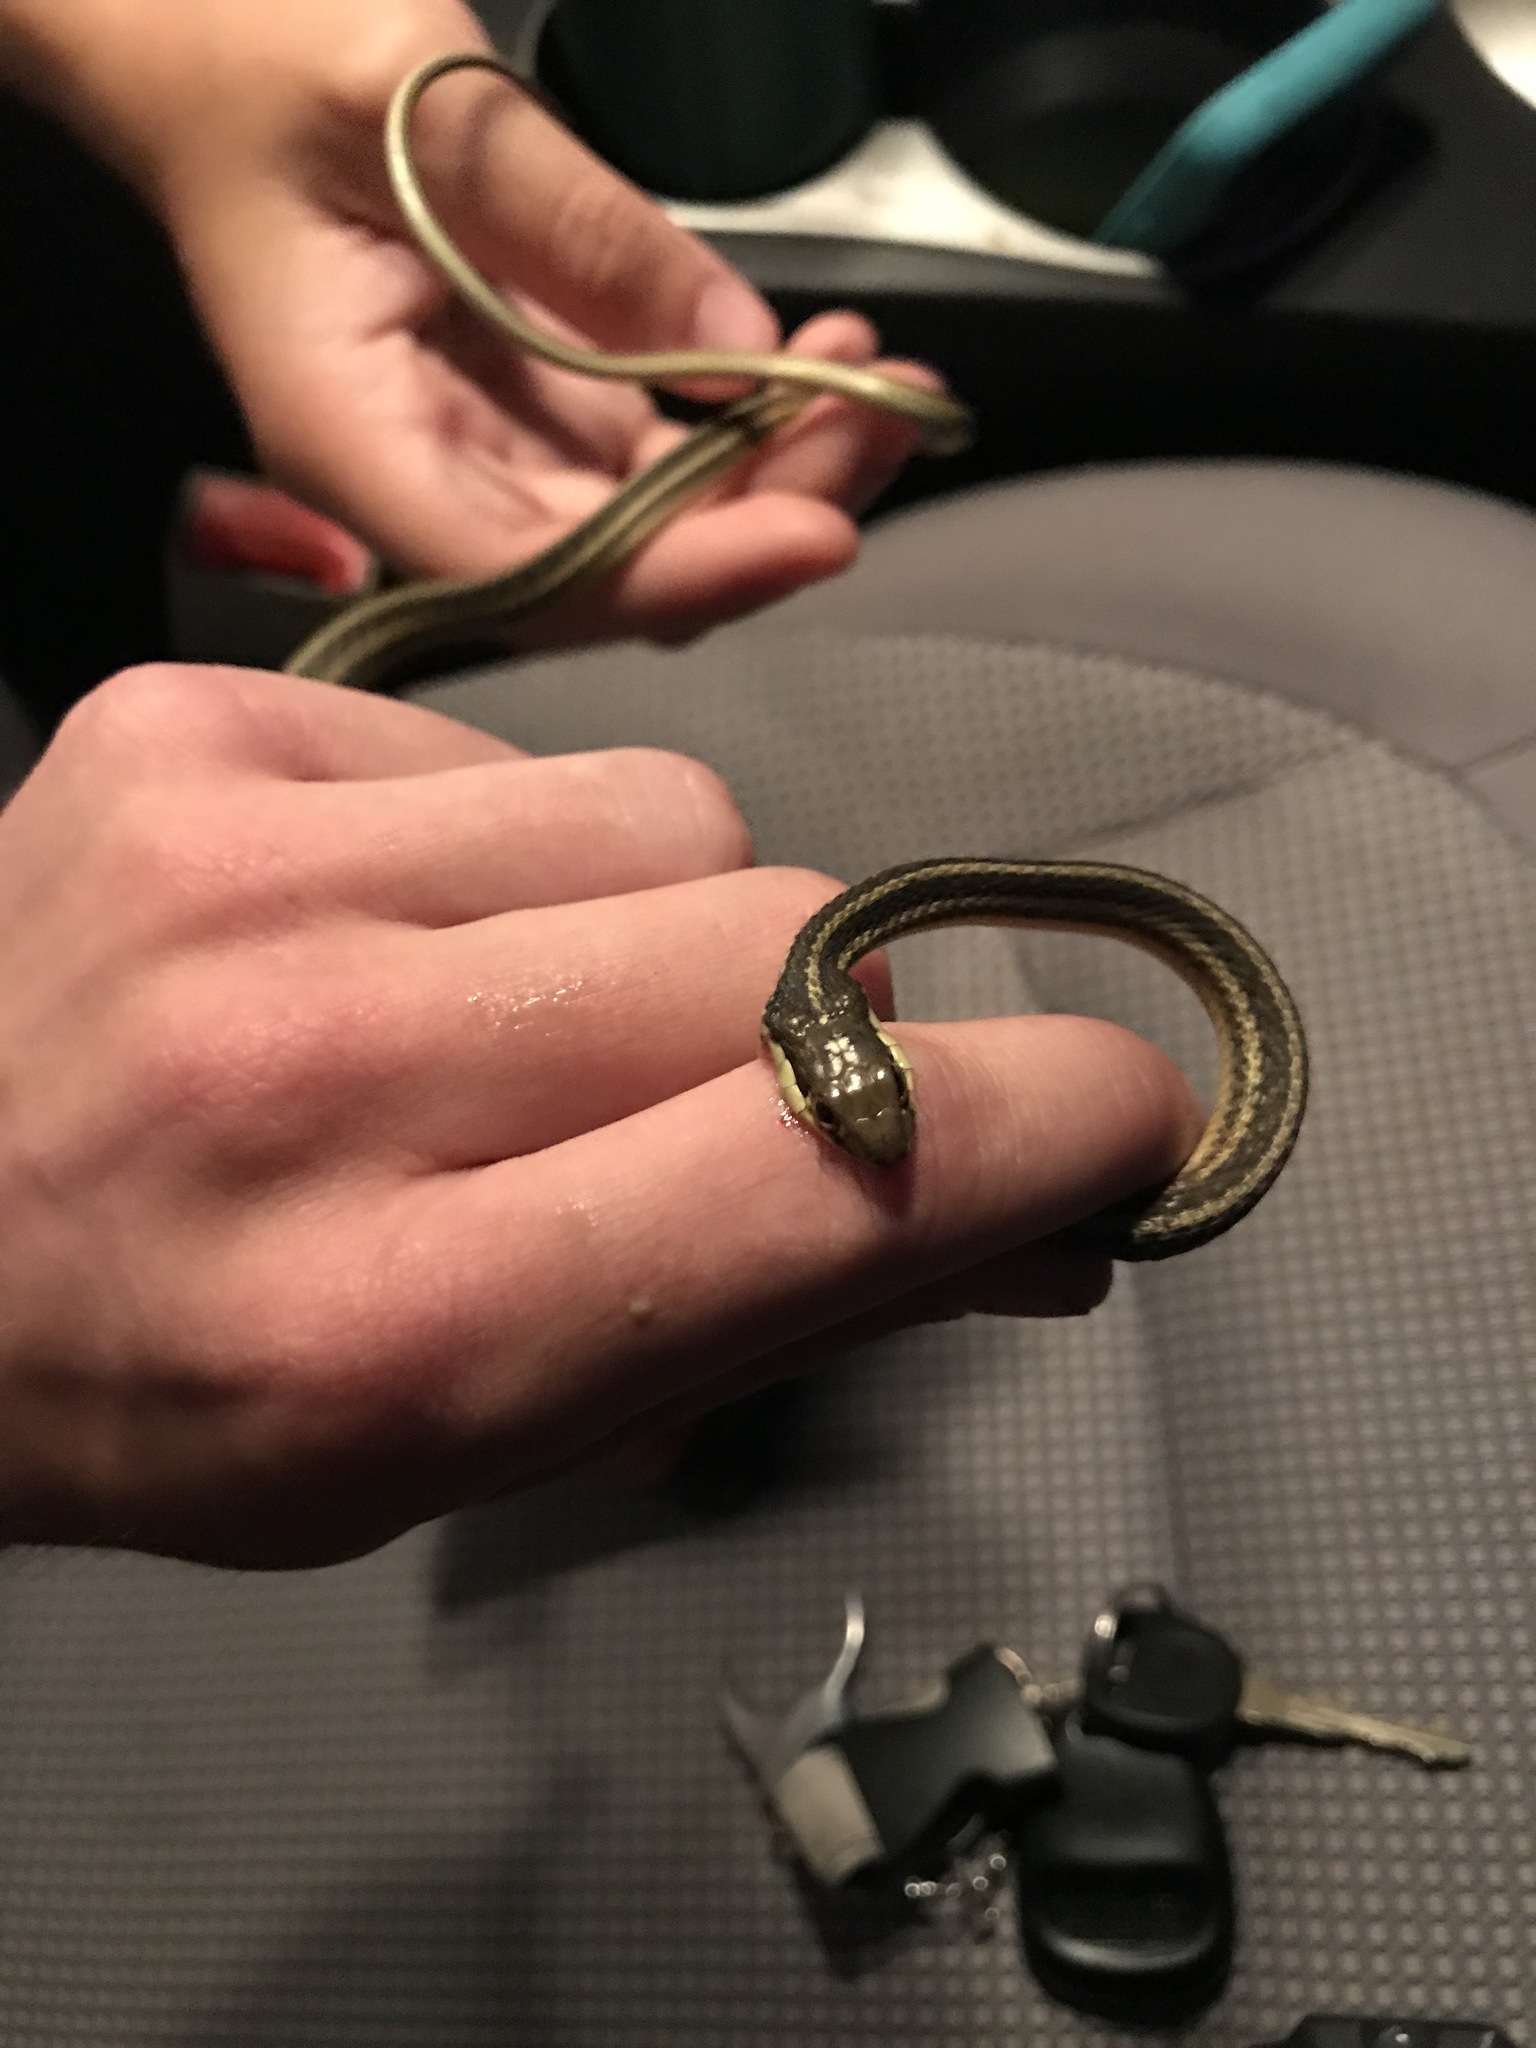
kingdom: Animalia
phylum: Chordata
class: Squamata
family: Colubridae
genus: Thamnophis
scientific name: Thamnophis proximus
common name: Western ribbon snake
